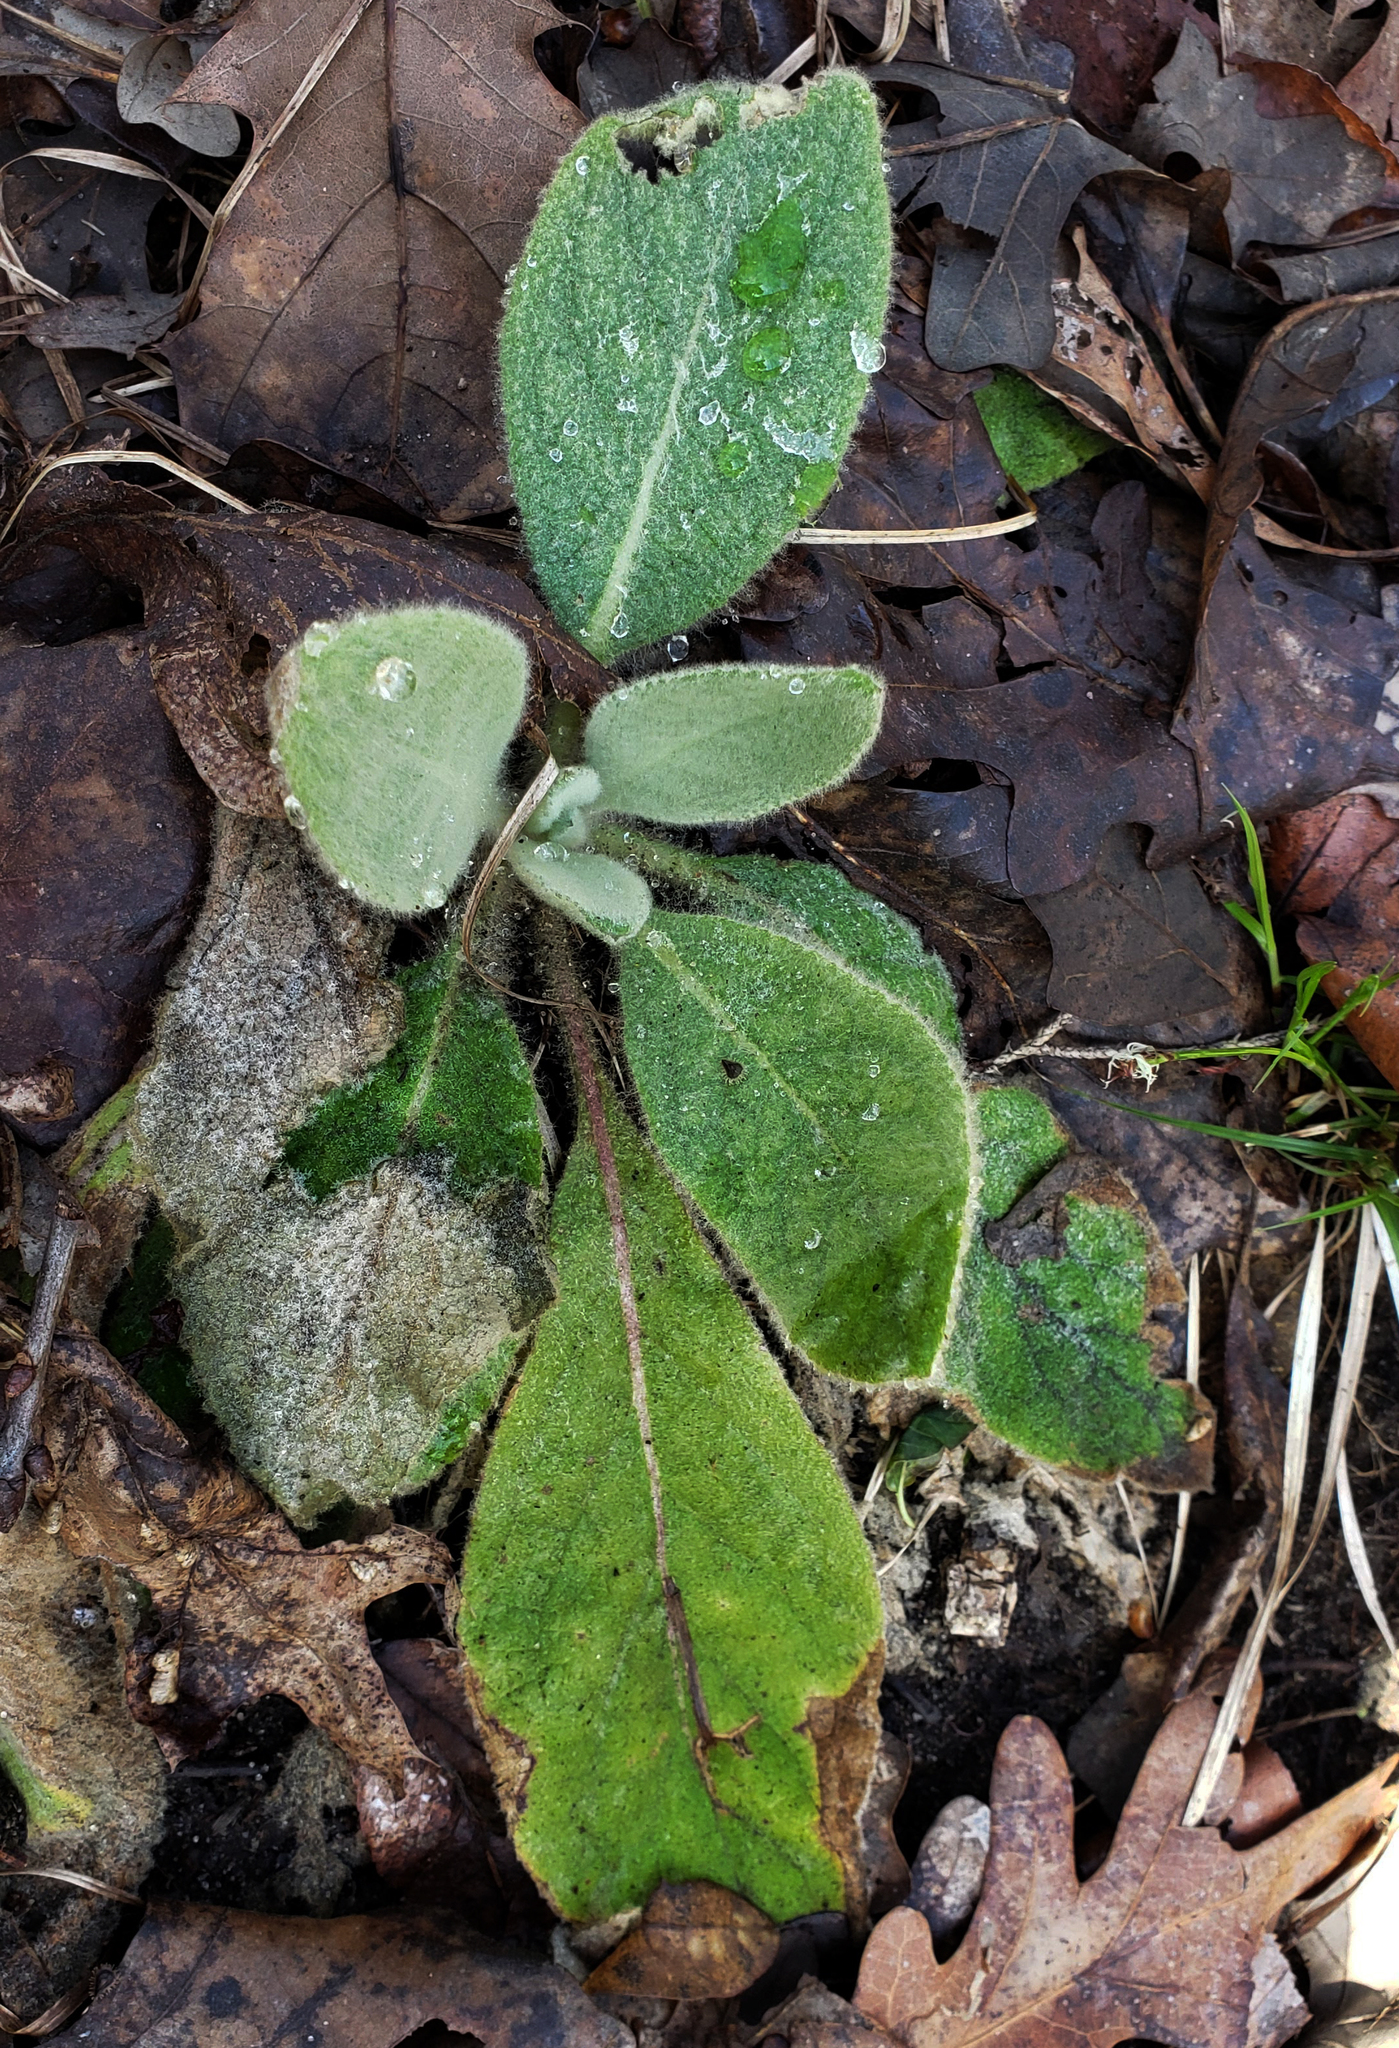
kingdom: Plantae
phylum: Tracheophyta
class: Magnoliopsida
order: Lamiales
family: Scrophulariaceae
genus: Verbascum
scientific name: Verbascum thapsus
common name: Common mullein
